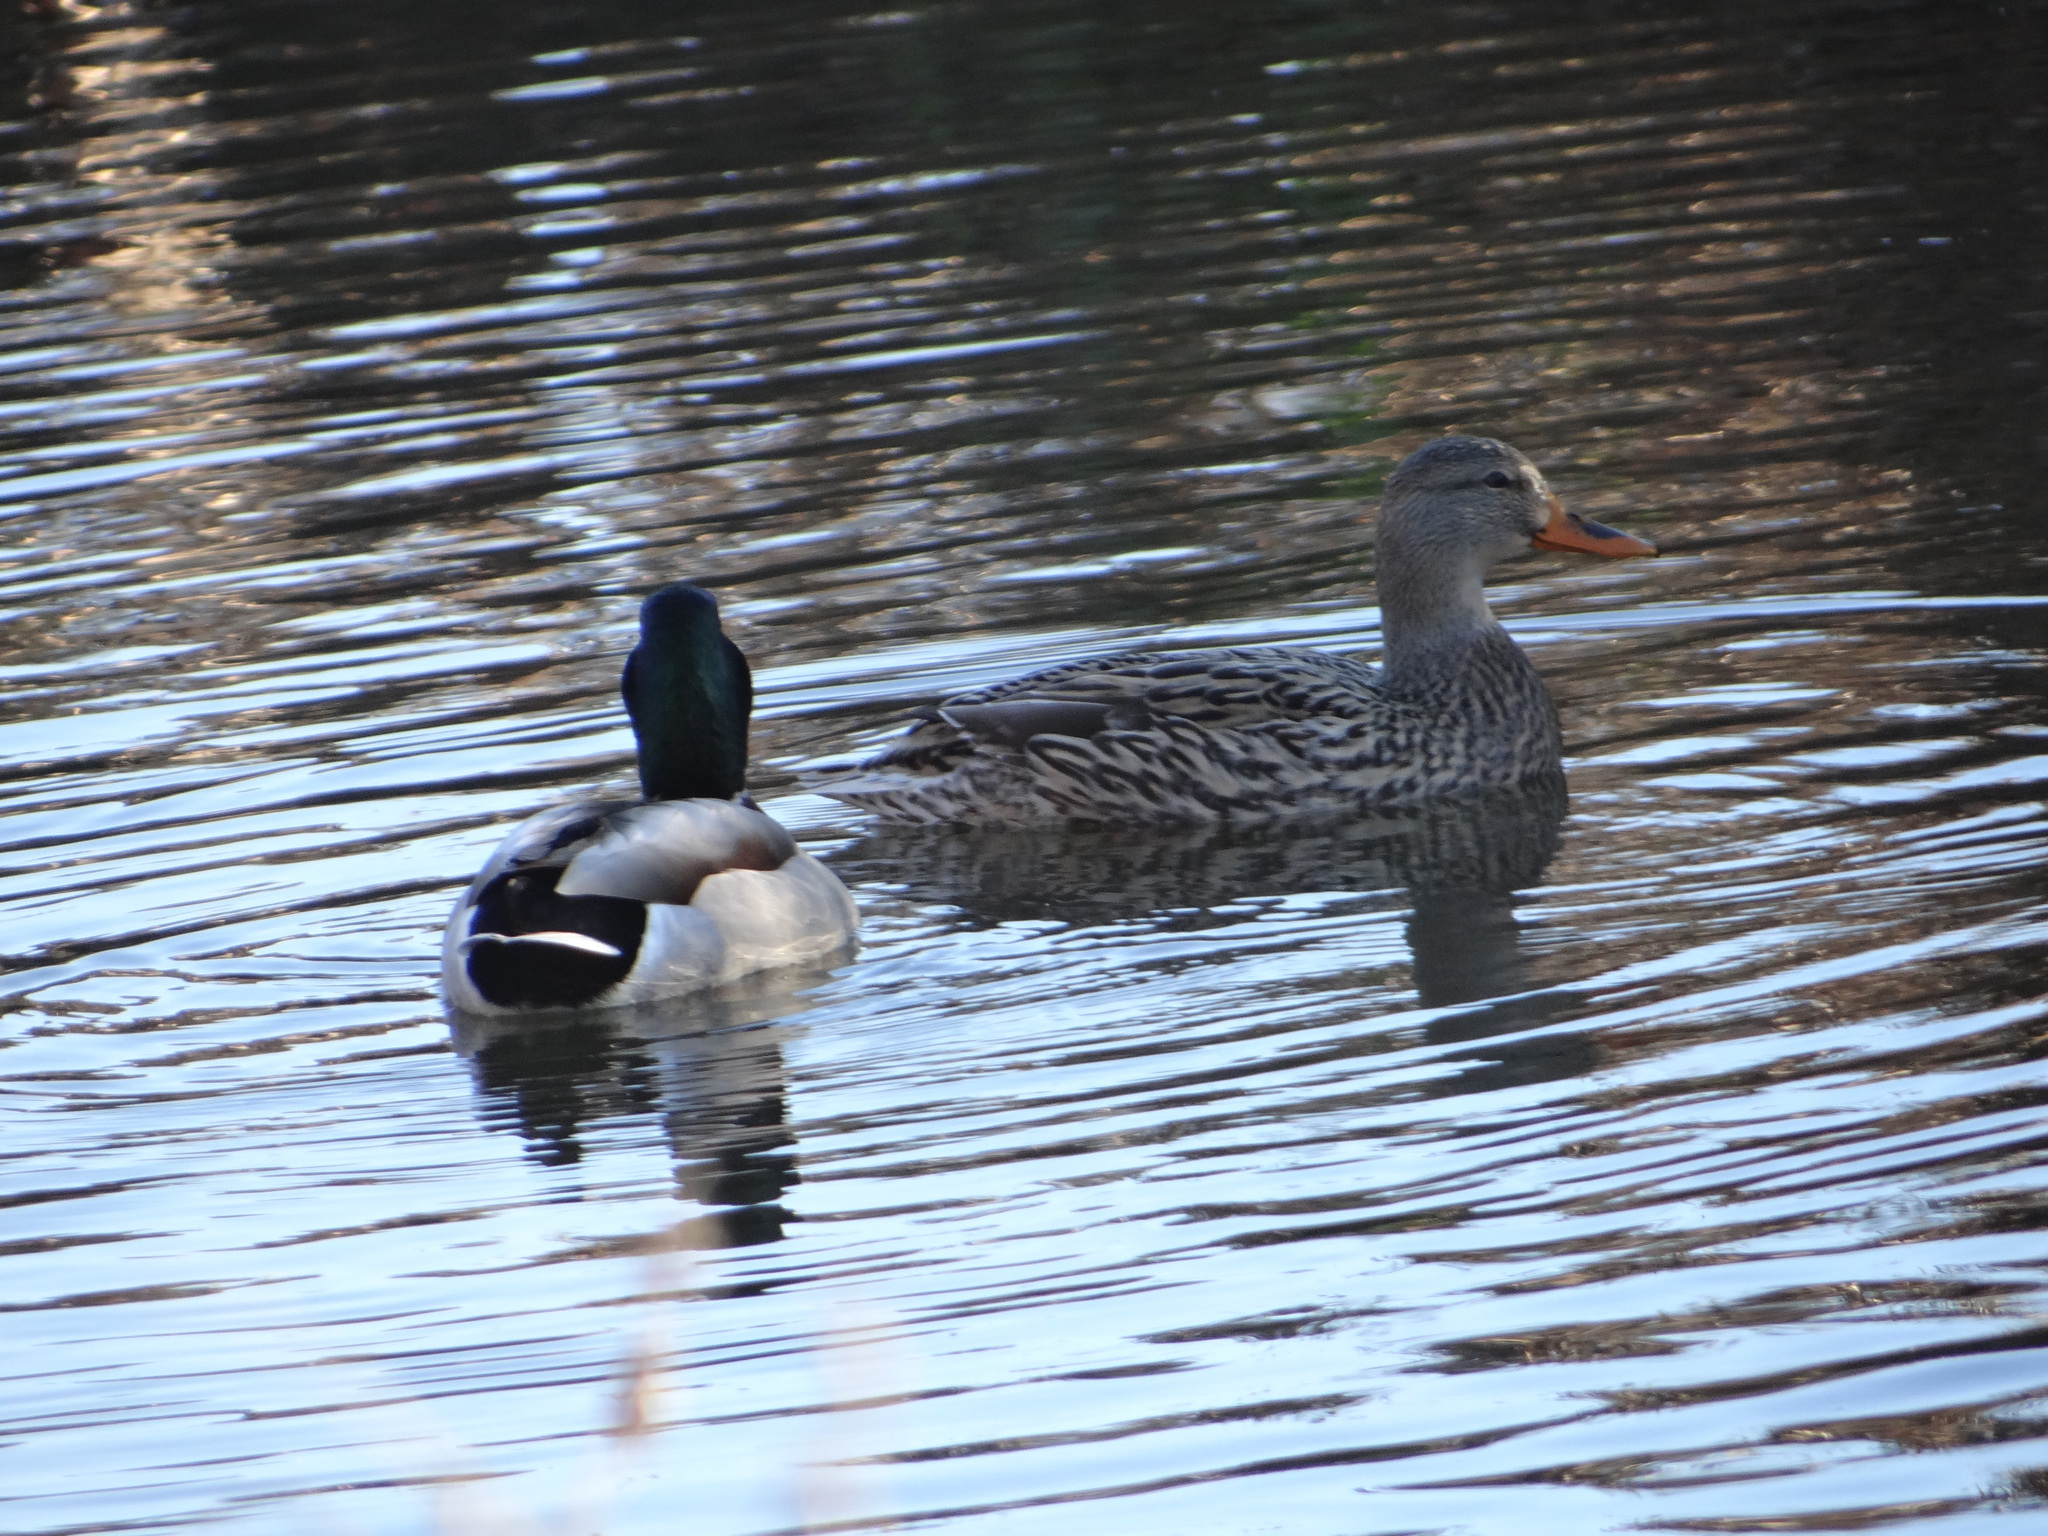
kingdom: Animalia
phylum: Chordata
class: Aves
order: Anseriformes
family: Anatidae
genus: Anas
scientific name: Anas platyrhynchos
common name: Mallard
